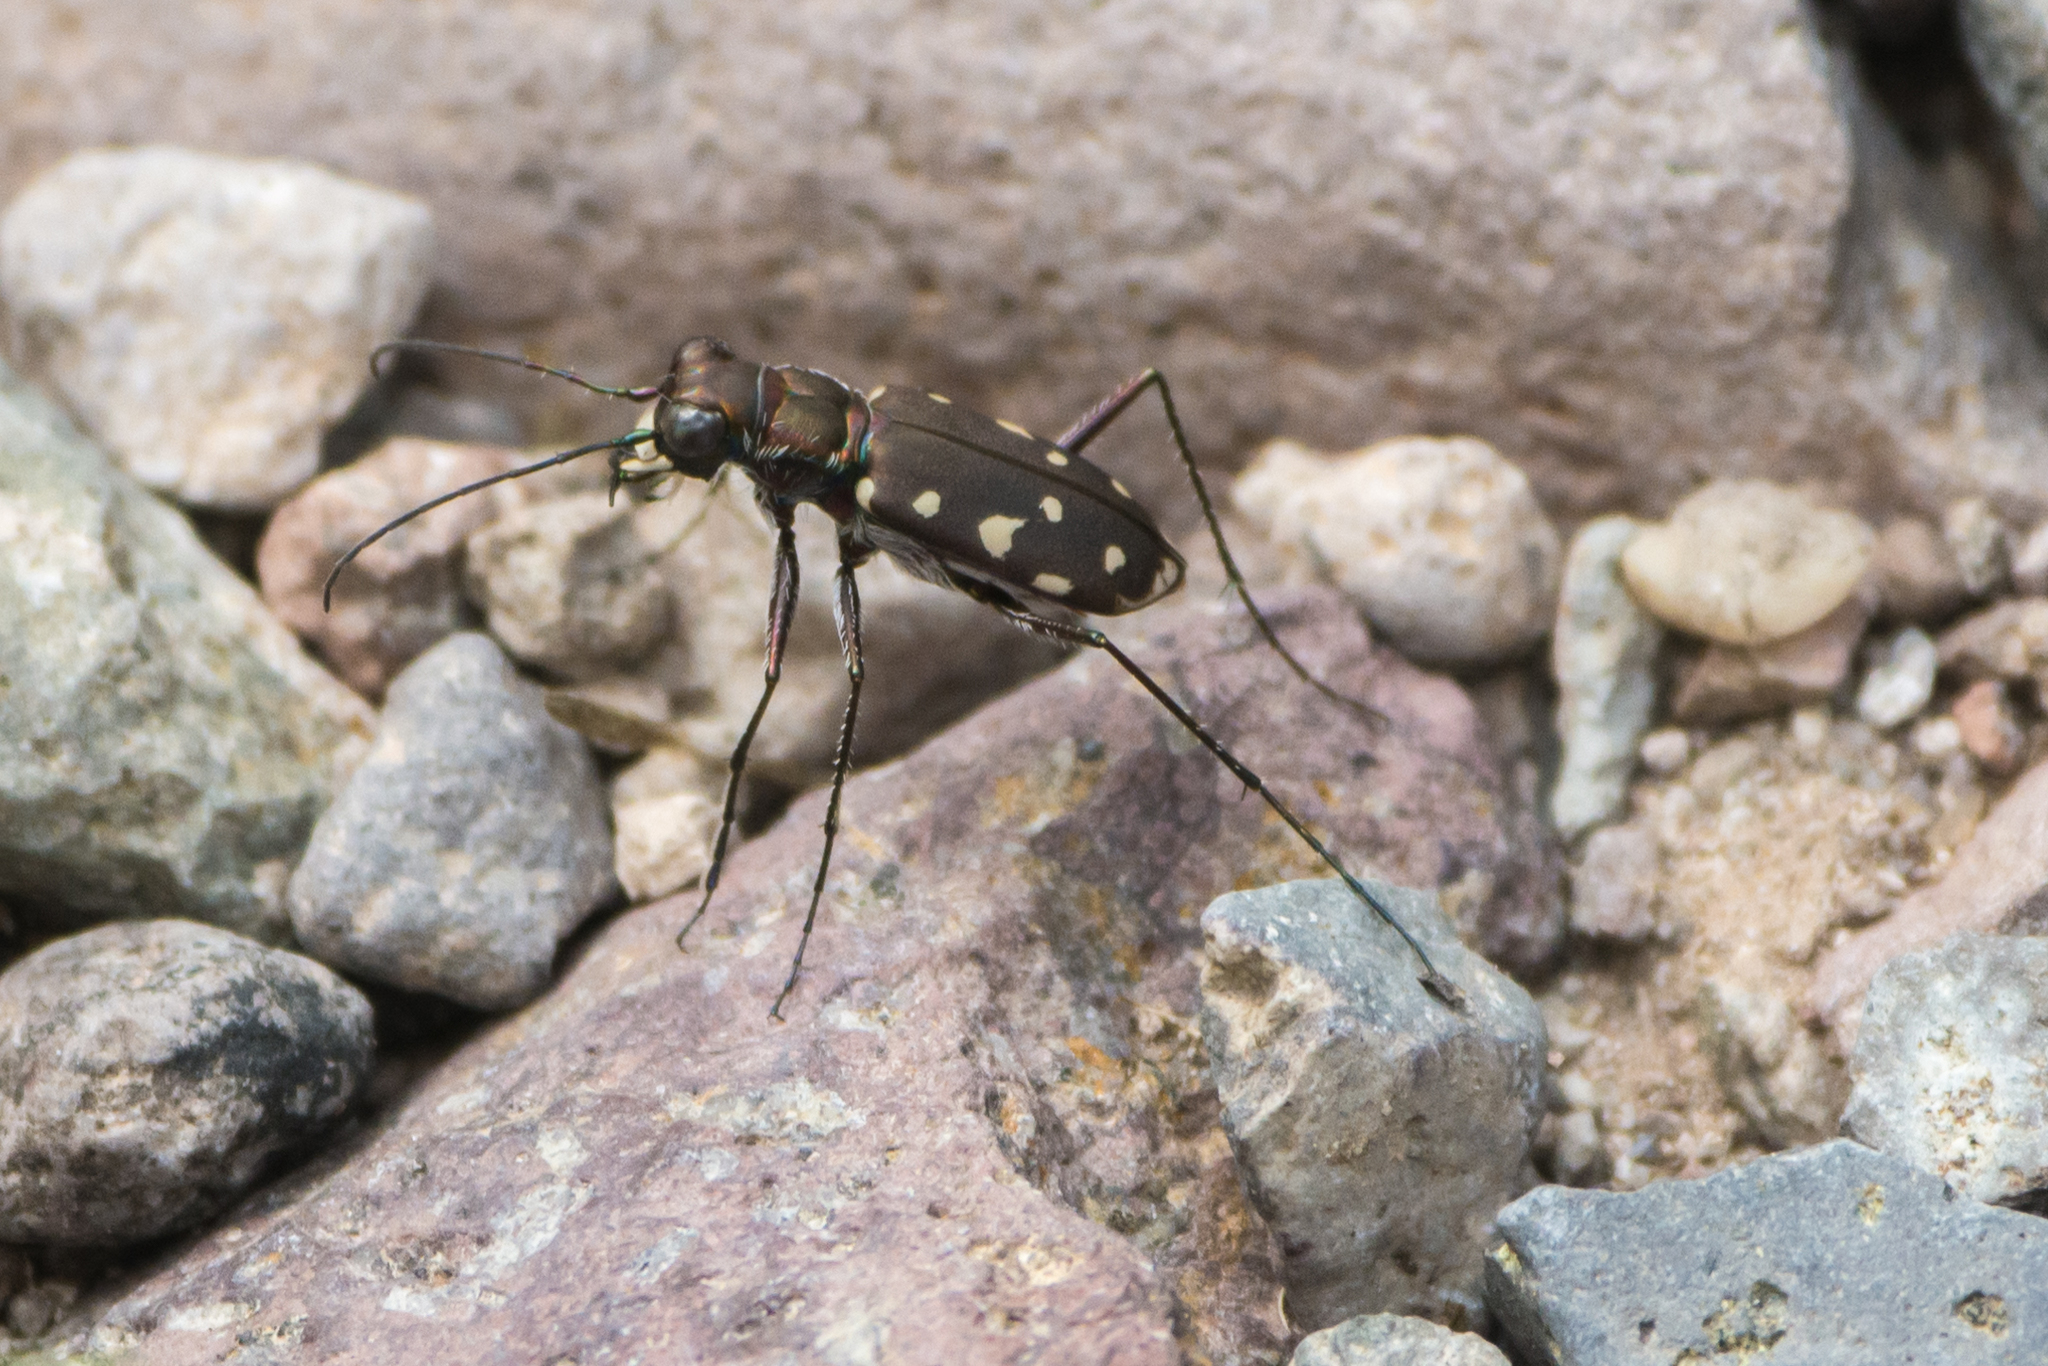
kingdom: Animalia
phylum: Arthropoda
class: Insecta
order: Coleoptera
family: Carabidae
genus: Cicindela
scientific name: Cicindela sedecimpunctata
